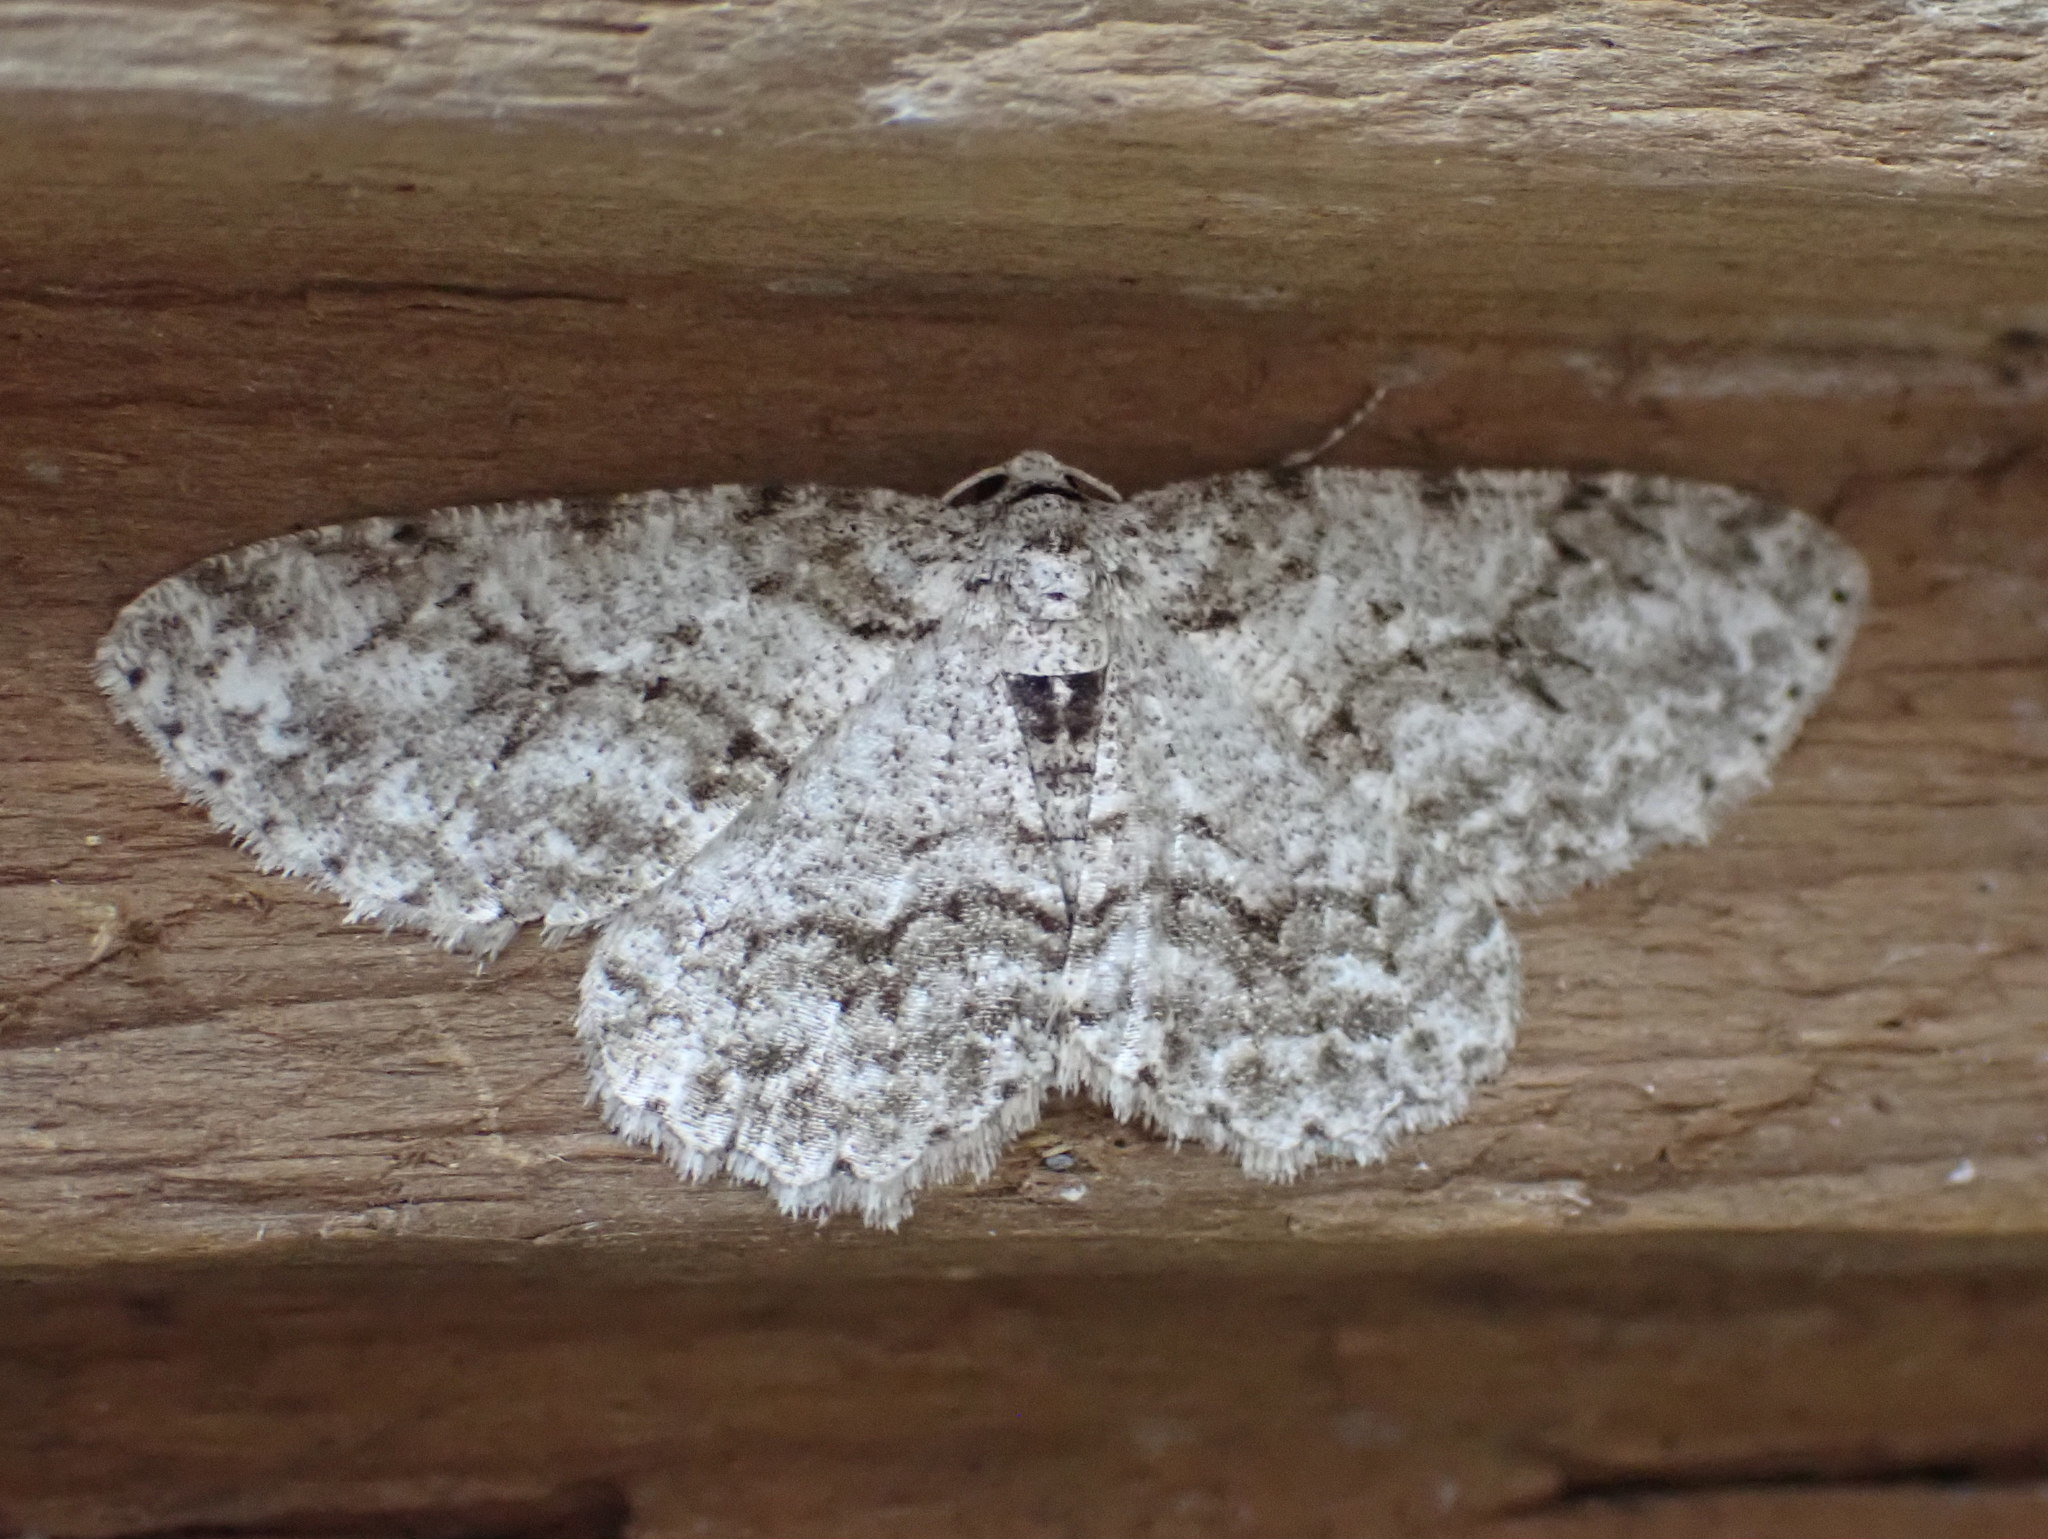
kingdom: Animalia
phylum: Arthropoda
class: Insecta
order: Lepidoptera
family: Geometridae
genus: Ectropis
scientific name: Ectropis crepuscularia
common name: Engrailed
